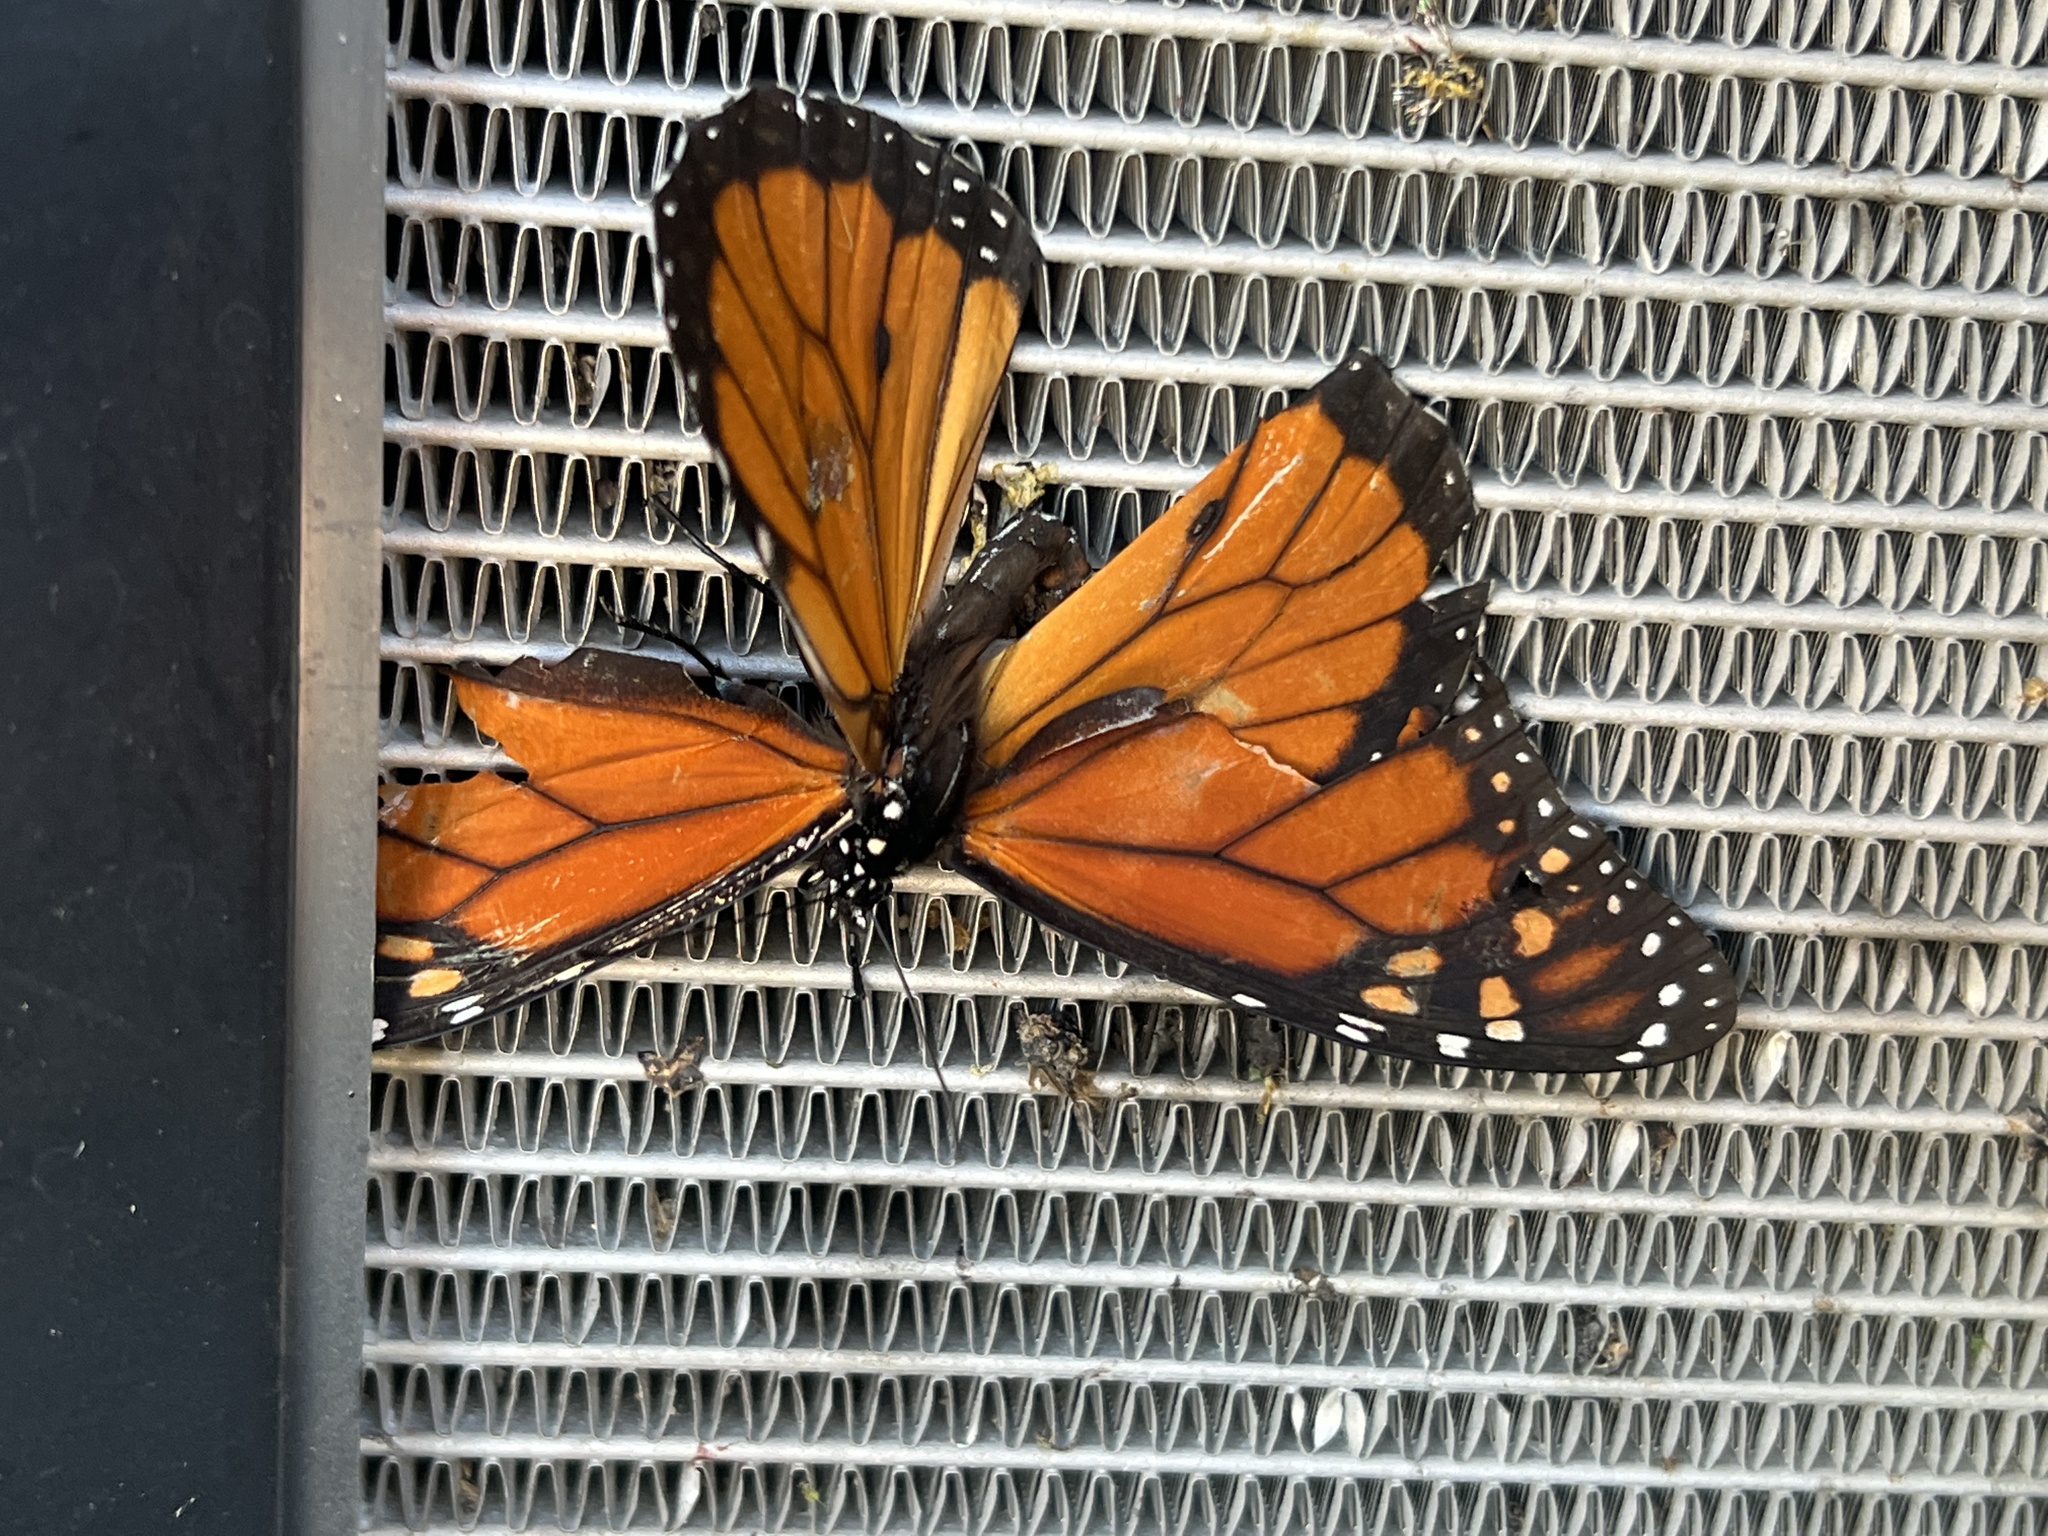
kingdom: Animalia
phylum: Arthropoda
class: Insecta
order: Lepidoptera
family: Nymphalidae
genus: Danaus
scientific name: Danaus plexippus
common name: Monarch
